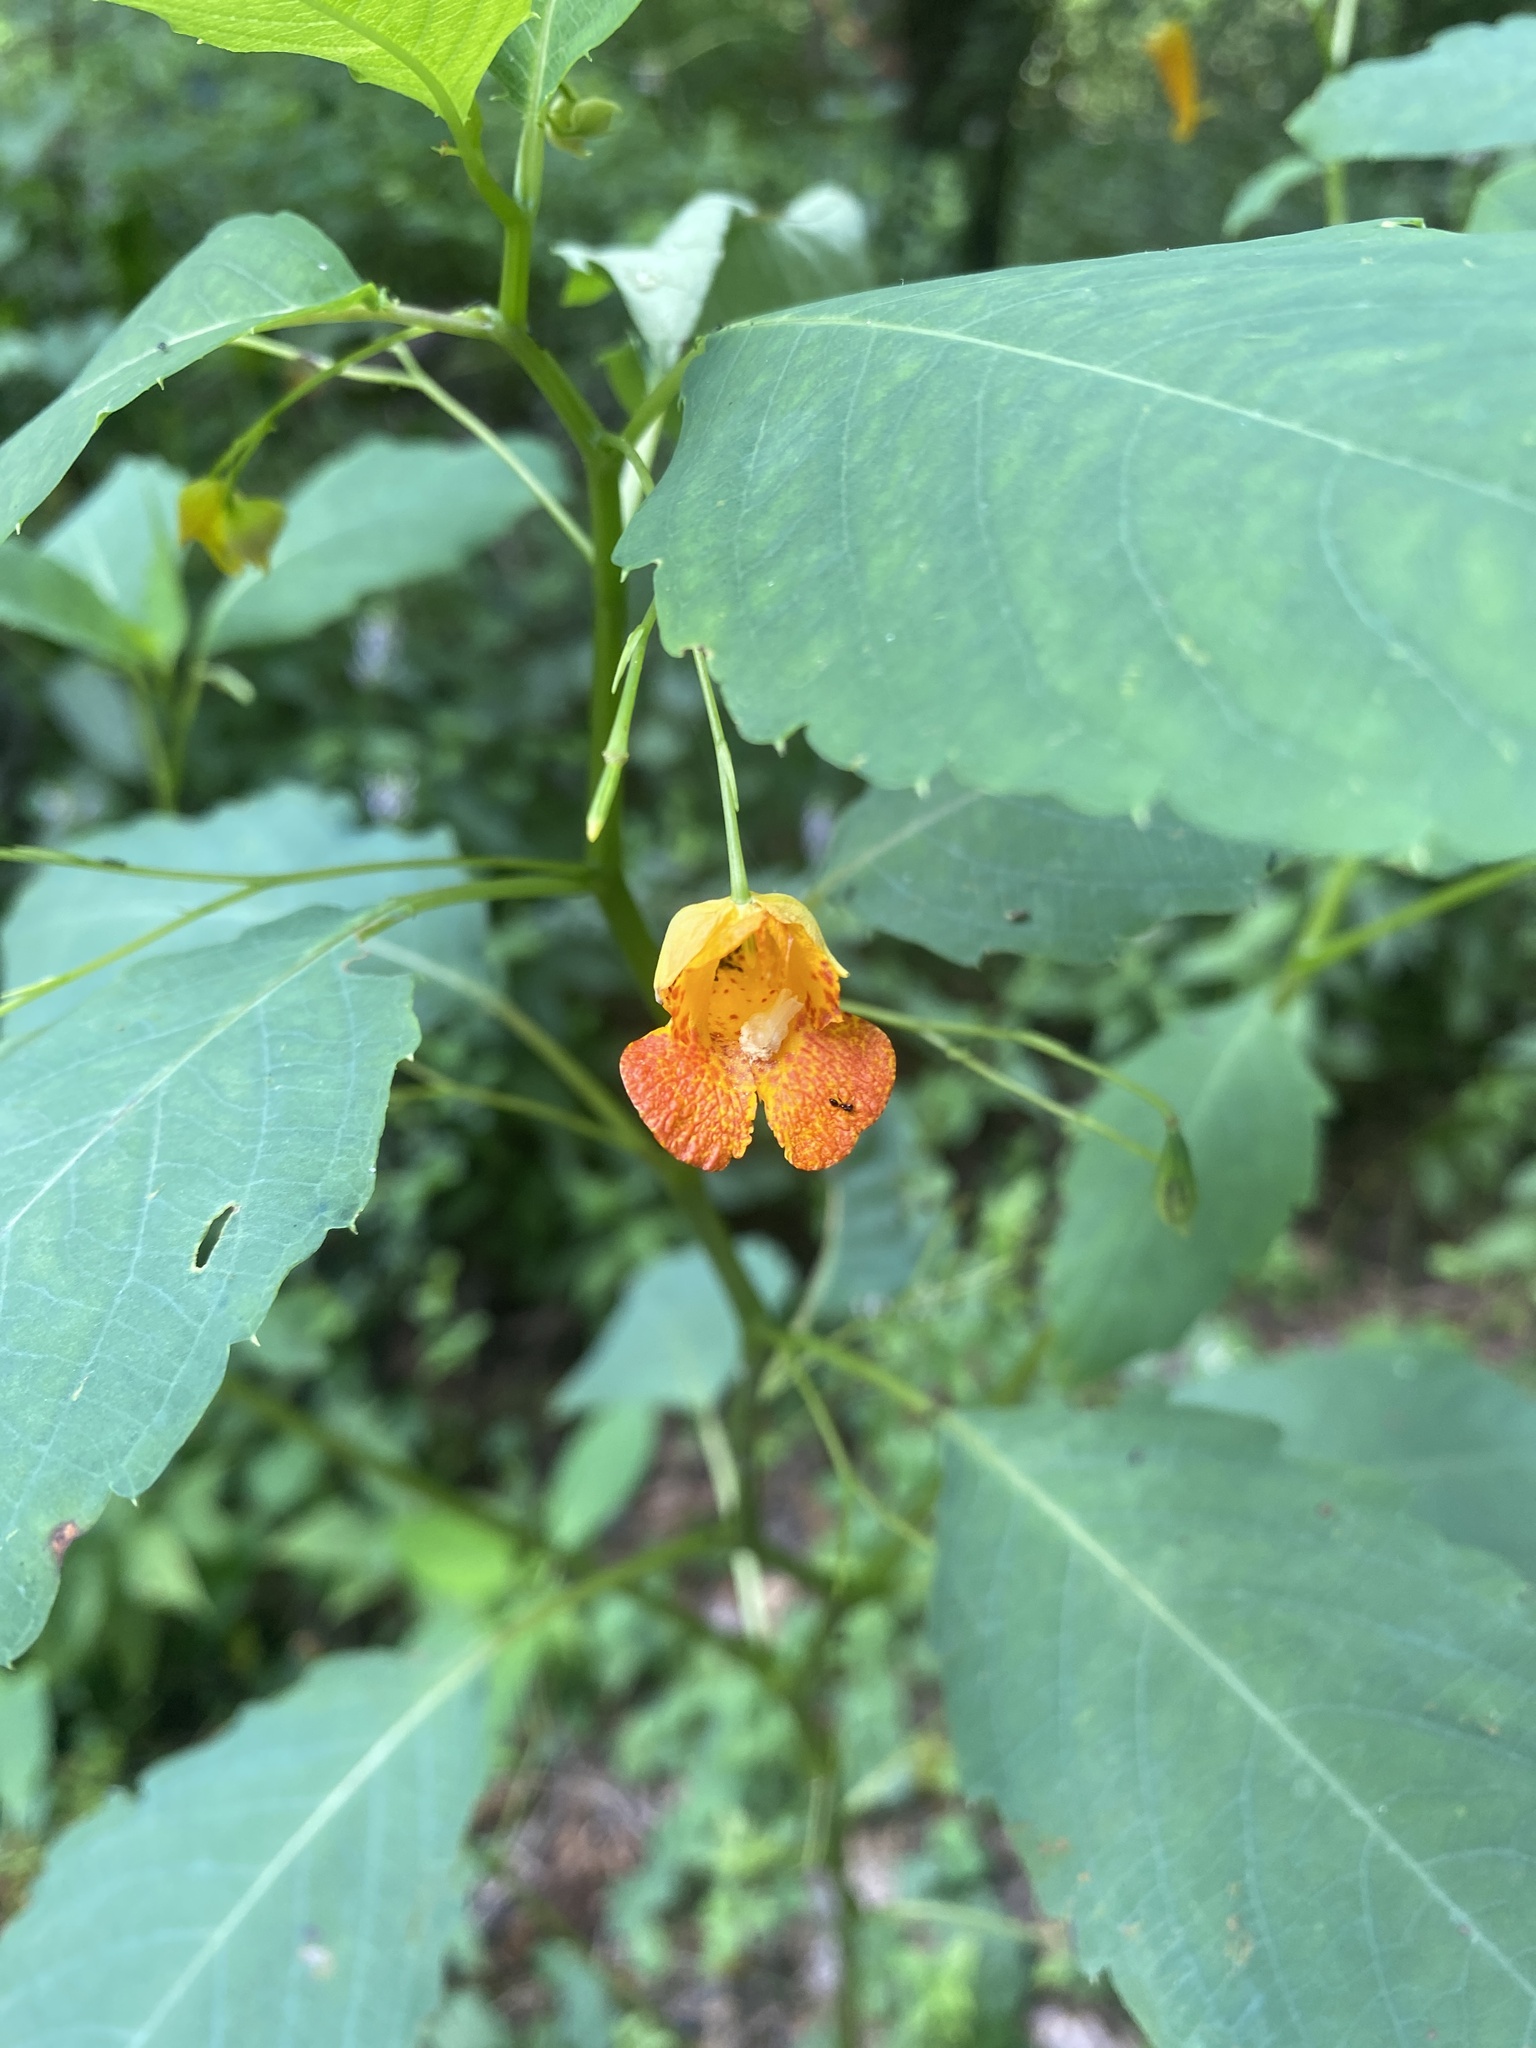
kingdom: Plantae
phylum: Tracheophyta
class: Magnoliopsida
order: Ericales
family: Balsaminaceae
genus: Impatiens
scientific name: Impatiens capensis
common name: Orange balsam
